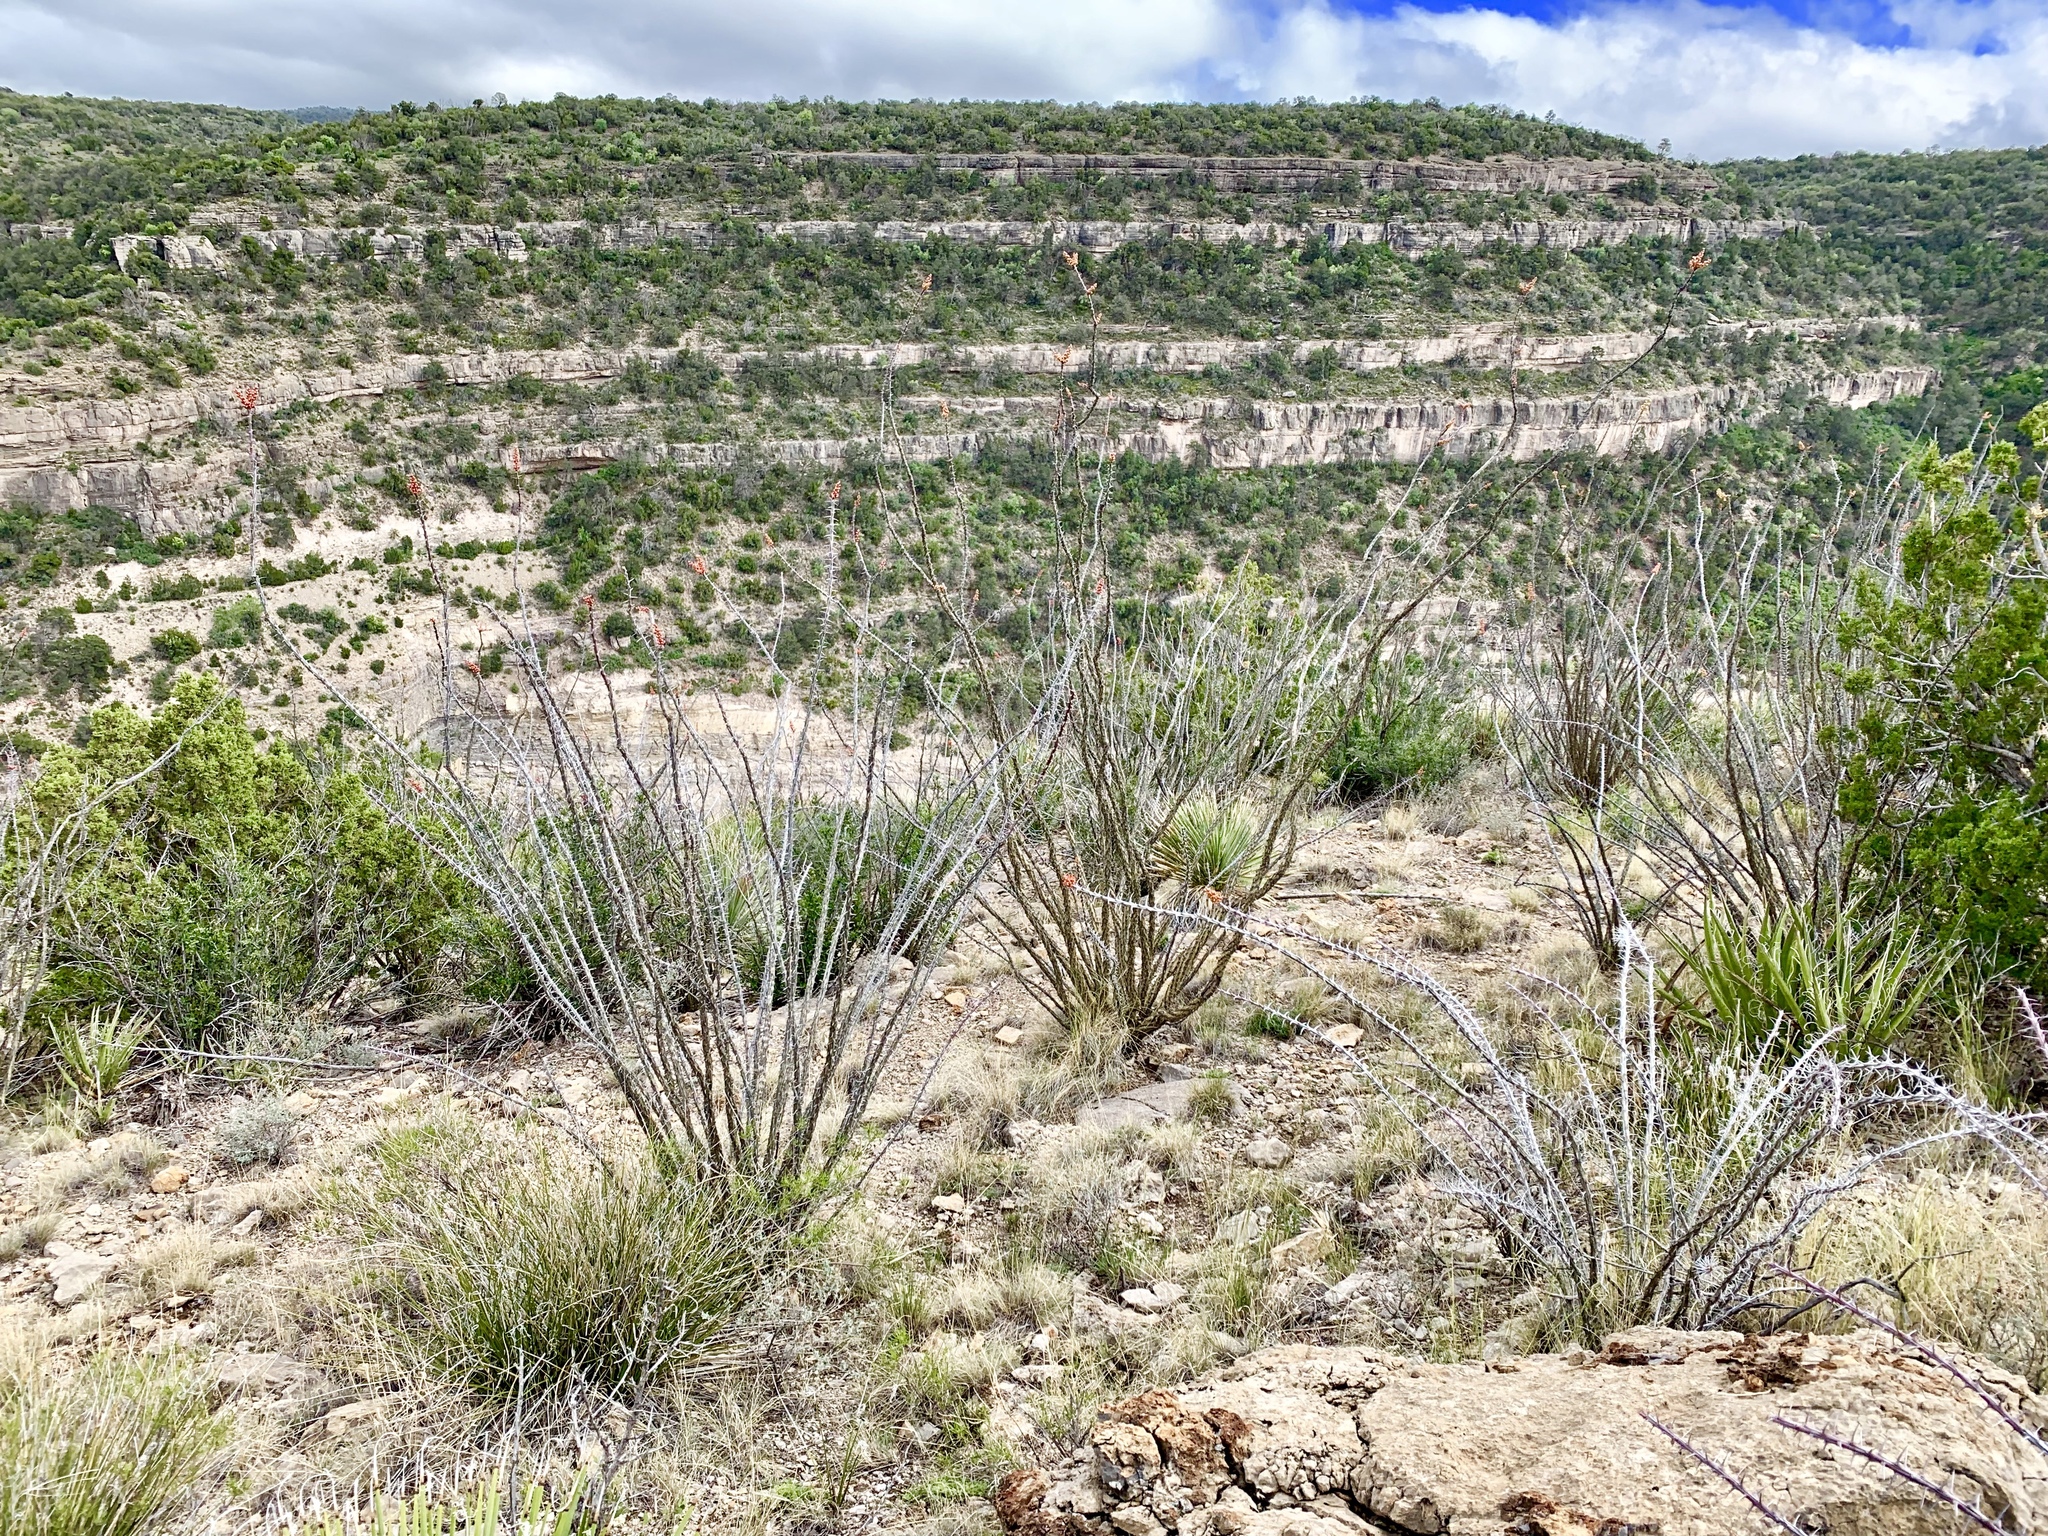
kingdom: Plantae
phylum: Tracheophyta
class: Magnoliopsida
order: Ericales
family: Fouquieriaceae
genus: Fouquieria
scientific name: Fouquieria splendens
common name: Vine-cactus
